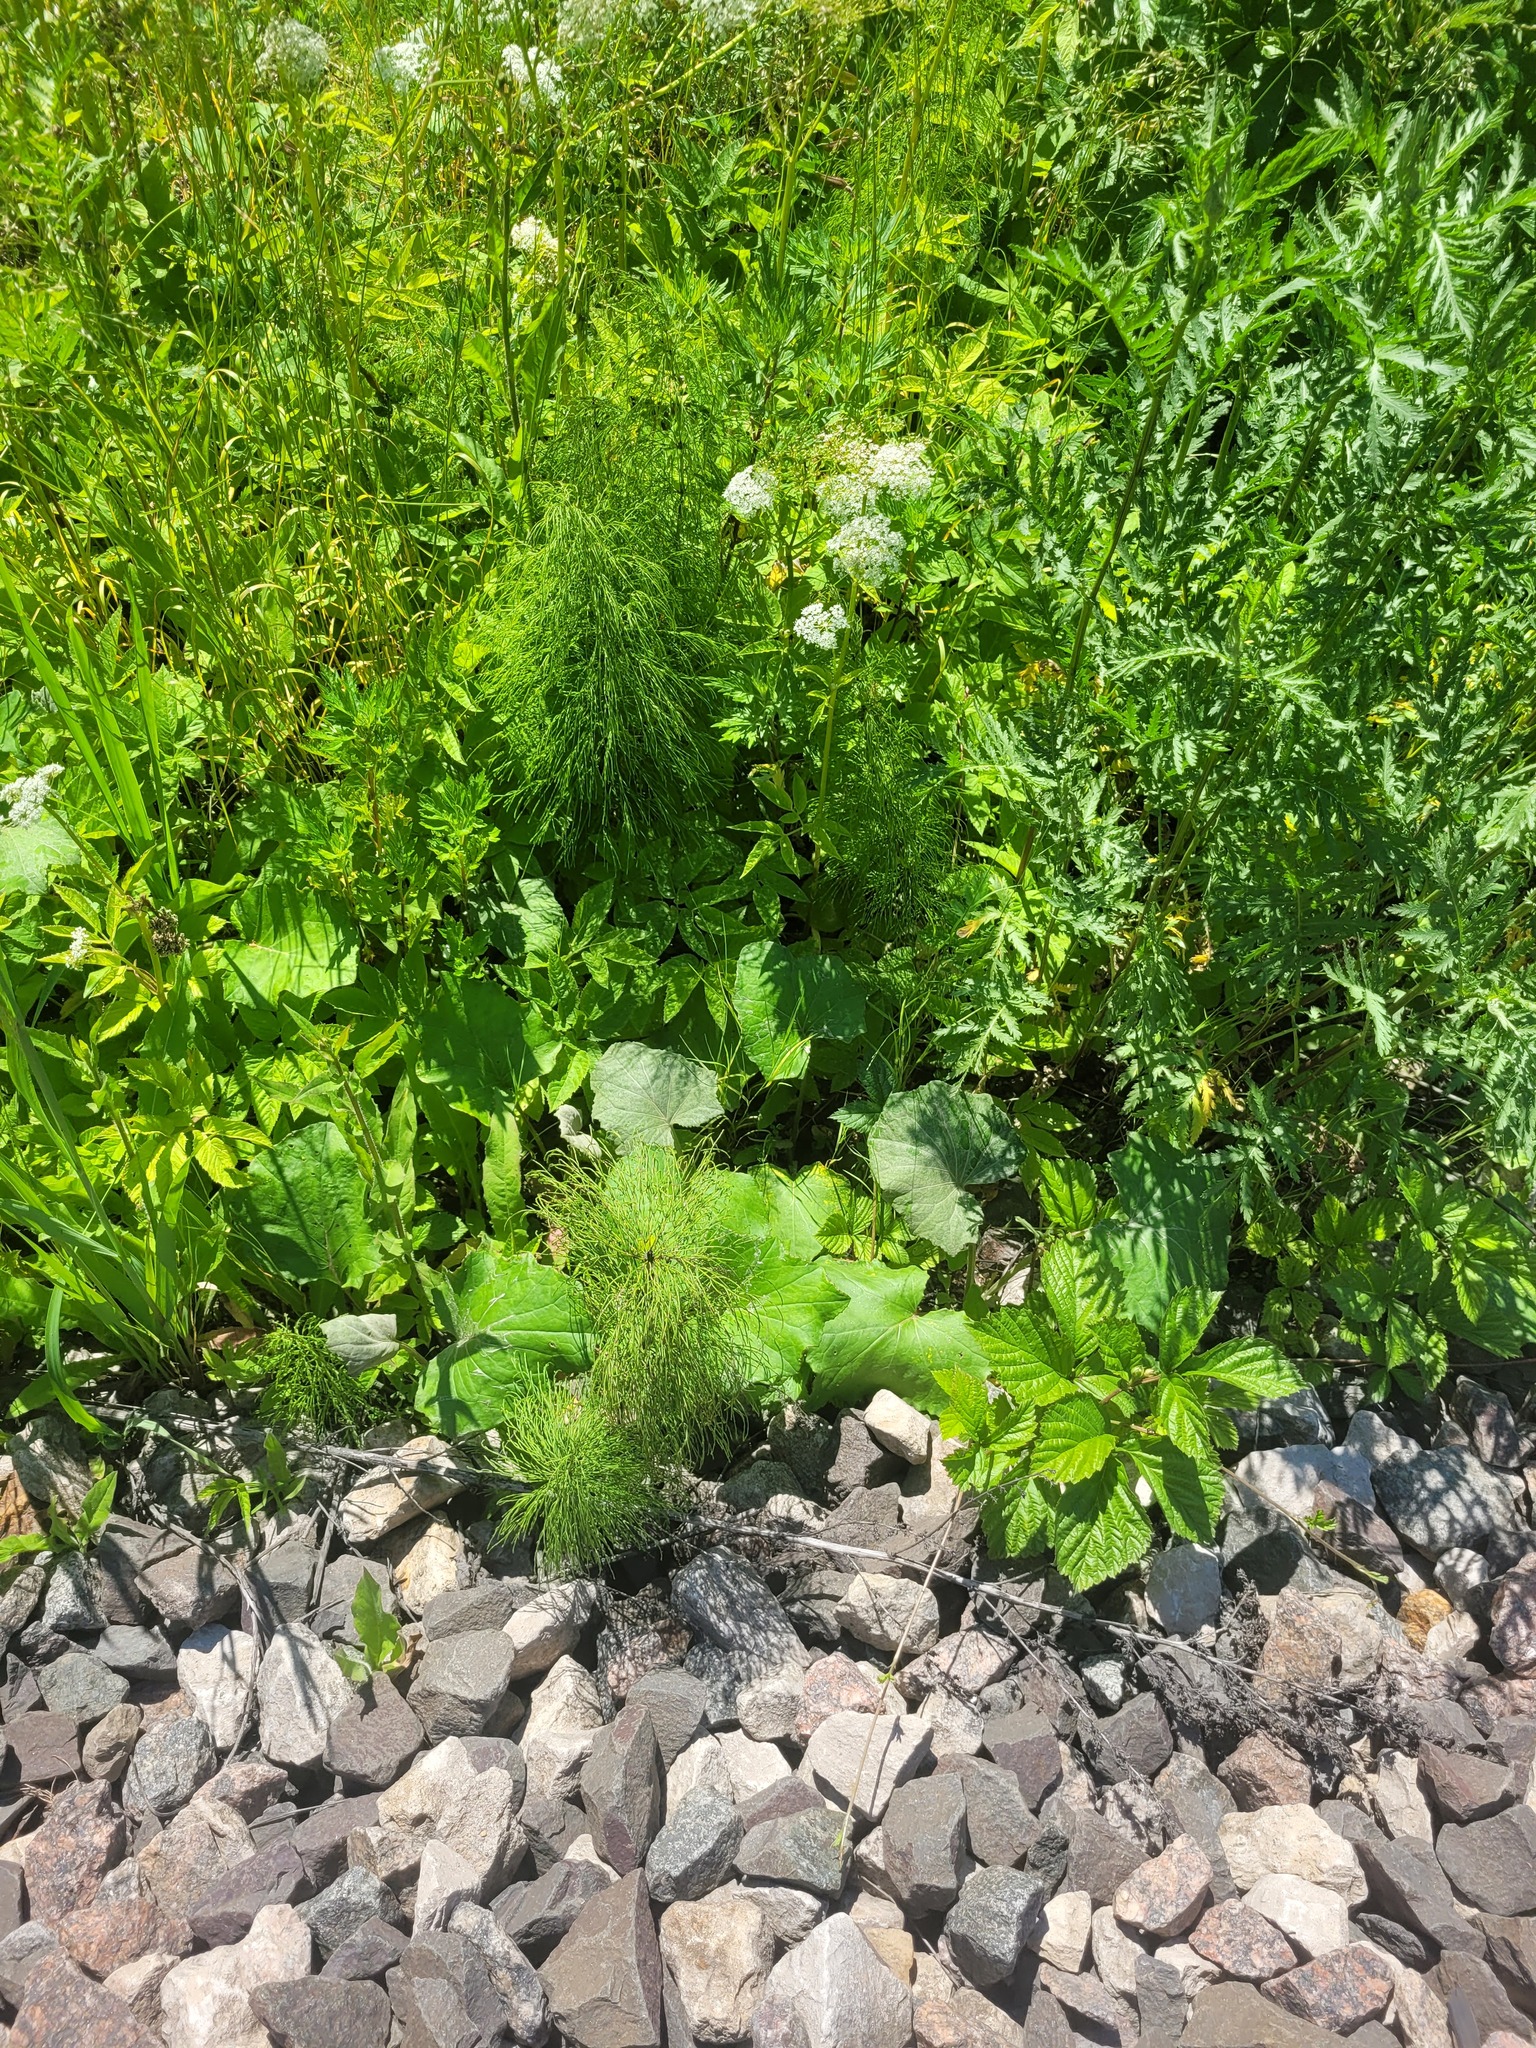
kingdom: Plantae
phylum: Tracheophyta
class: Magnoliopsida
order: Asterales
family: Asteraceae
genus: Tussilago
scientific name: Tussilago farfara
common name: Coltsfoot
